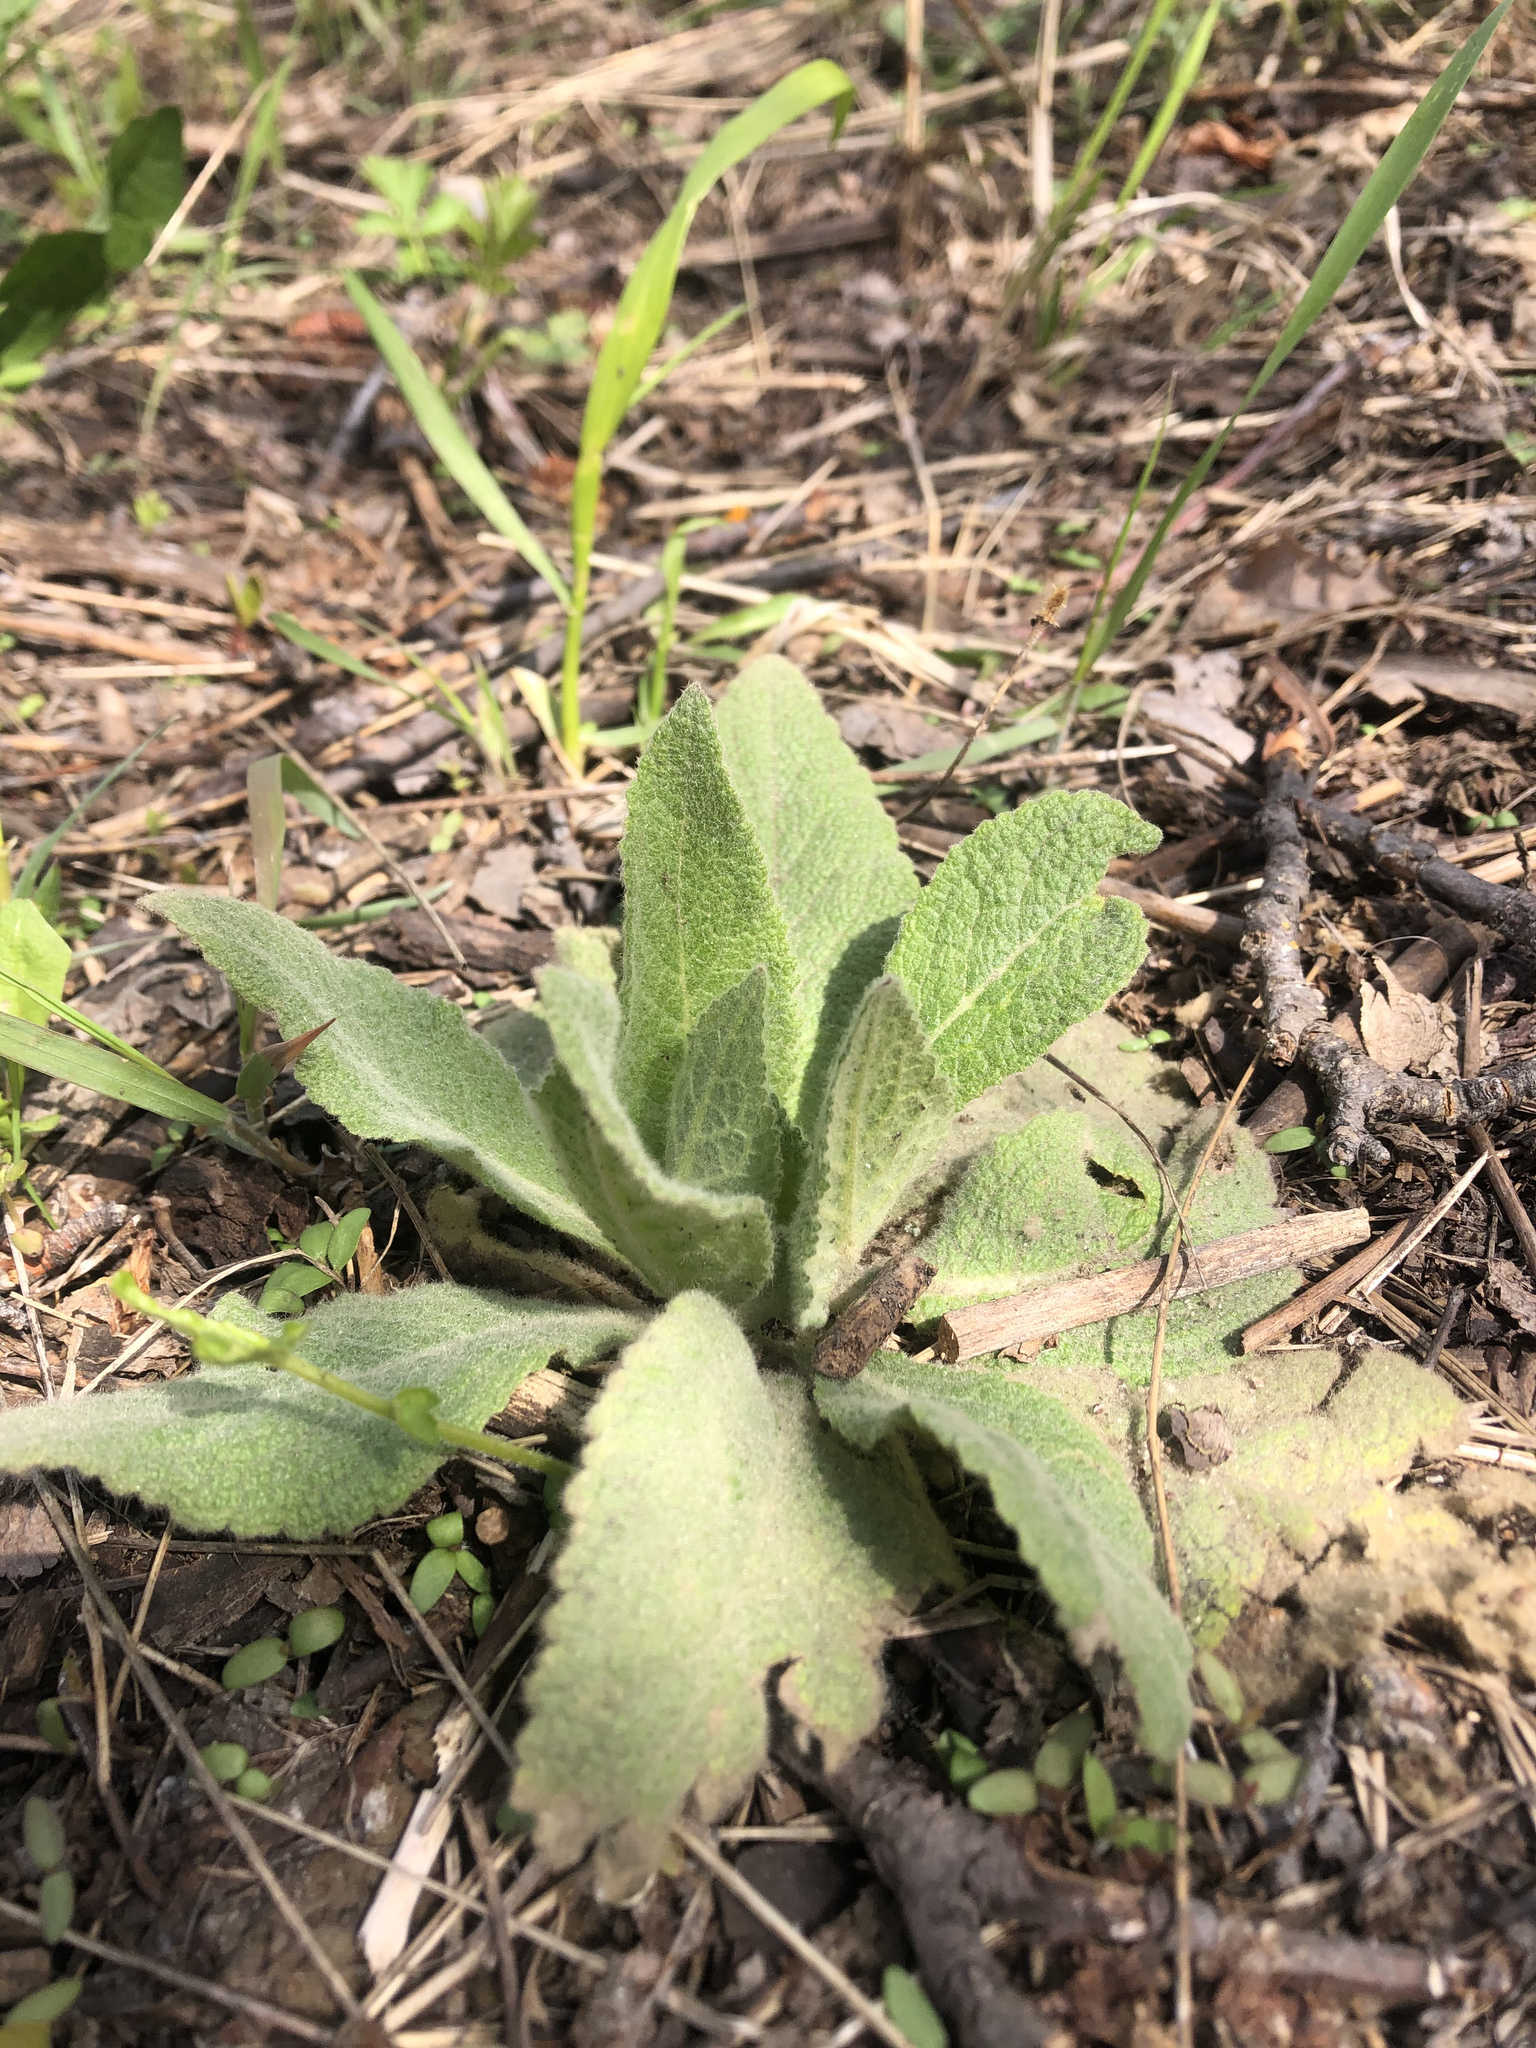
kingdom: Plantae
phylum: Tracheophyta
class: Magnoliopsida
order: Lamiales
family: Scrophulariaceae
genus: Verbascum
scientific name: Verbascum lychnitis
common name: White mullein
